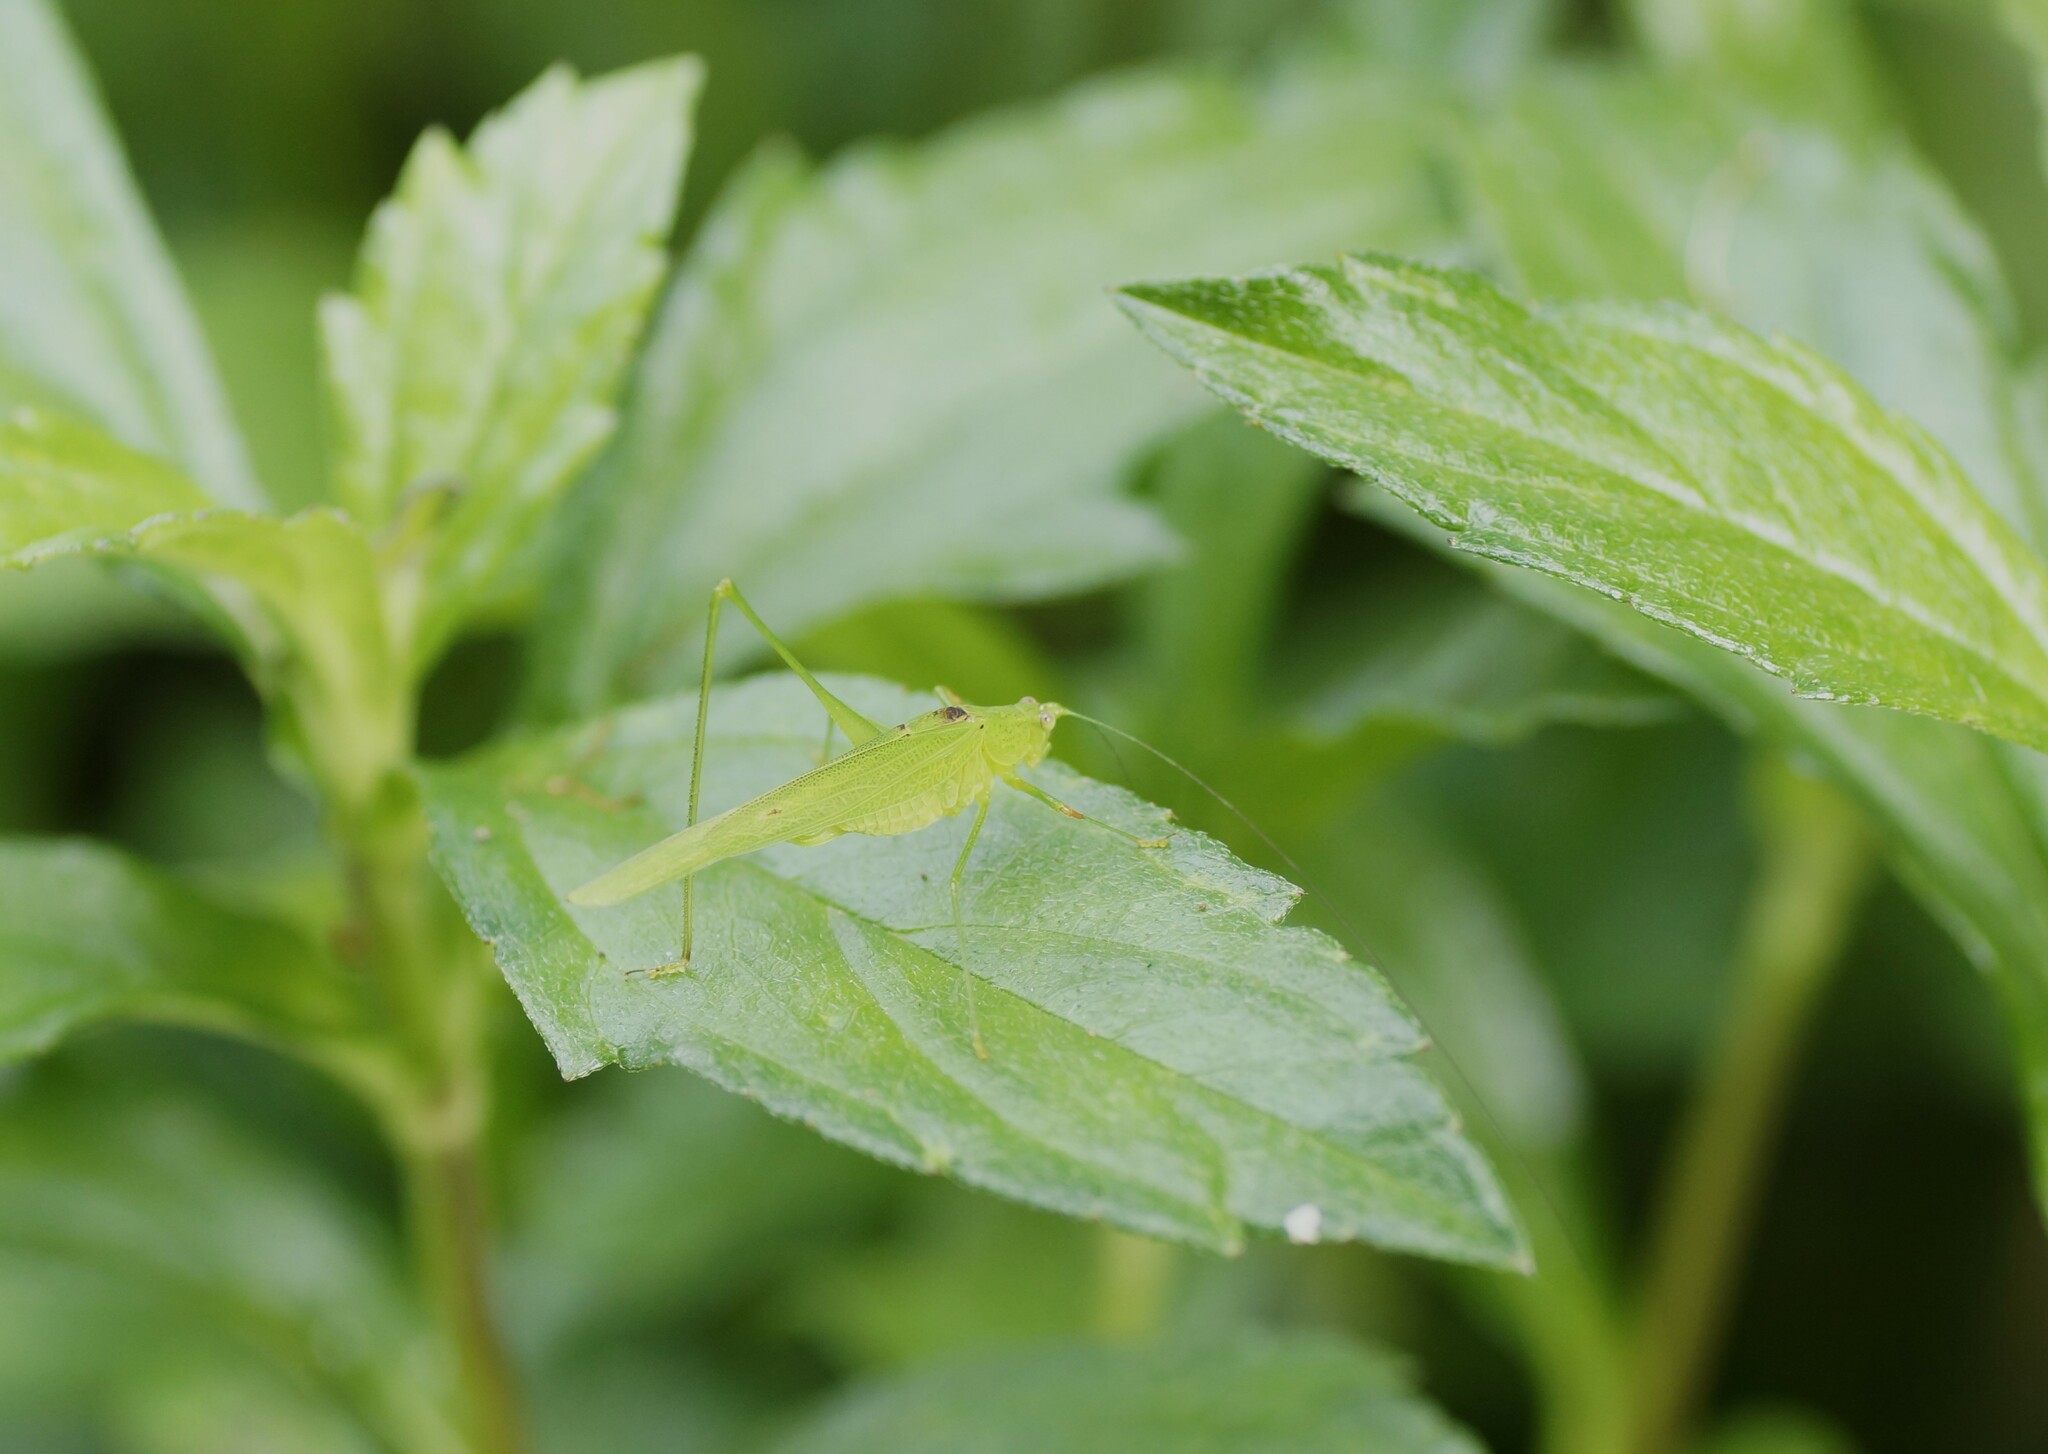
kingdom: Animalia
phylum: Arthropoda
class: Insecta
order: Orthoptera
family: Tettigoniidae
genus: Phaneroptera
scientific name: Phaneroptera brevis
